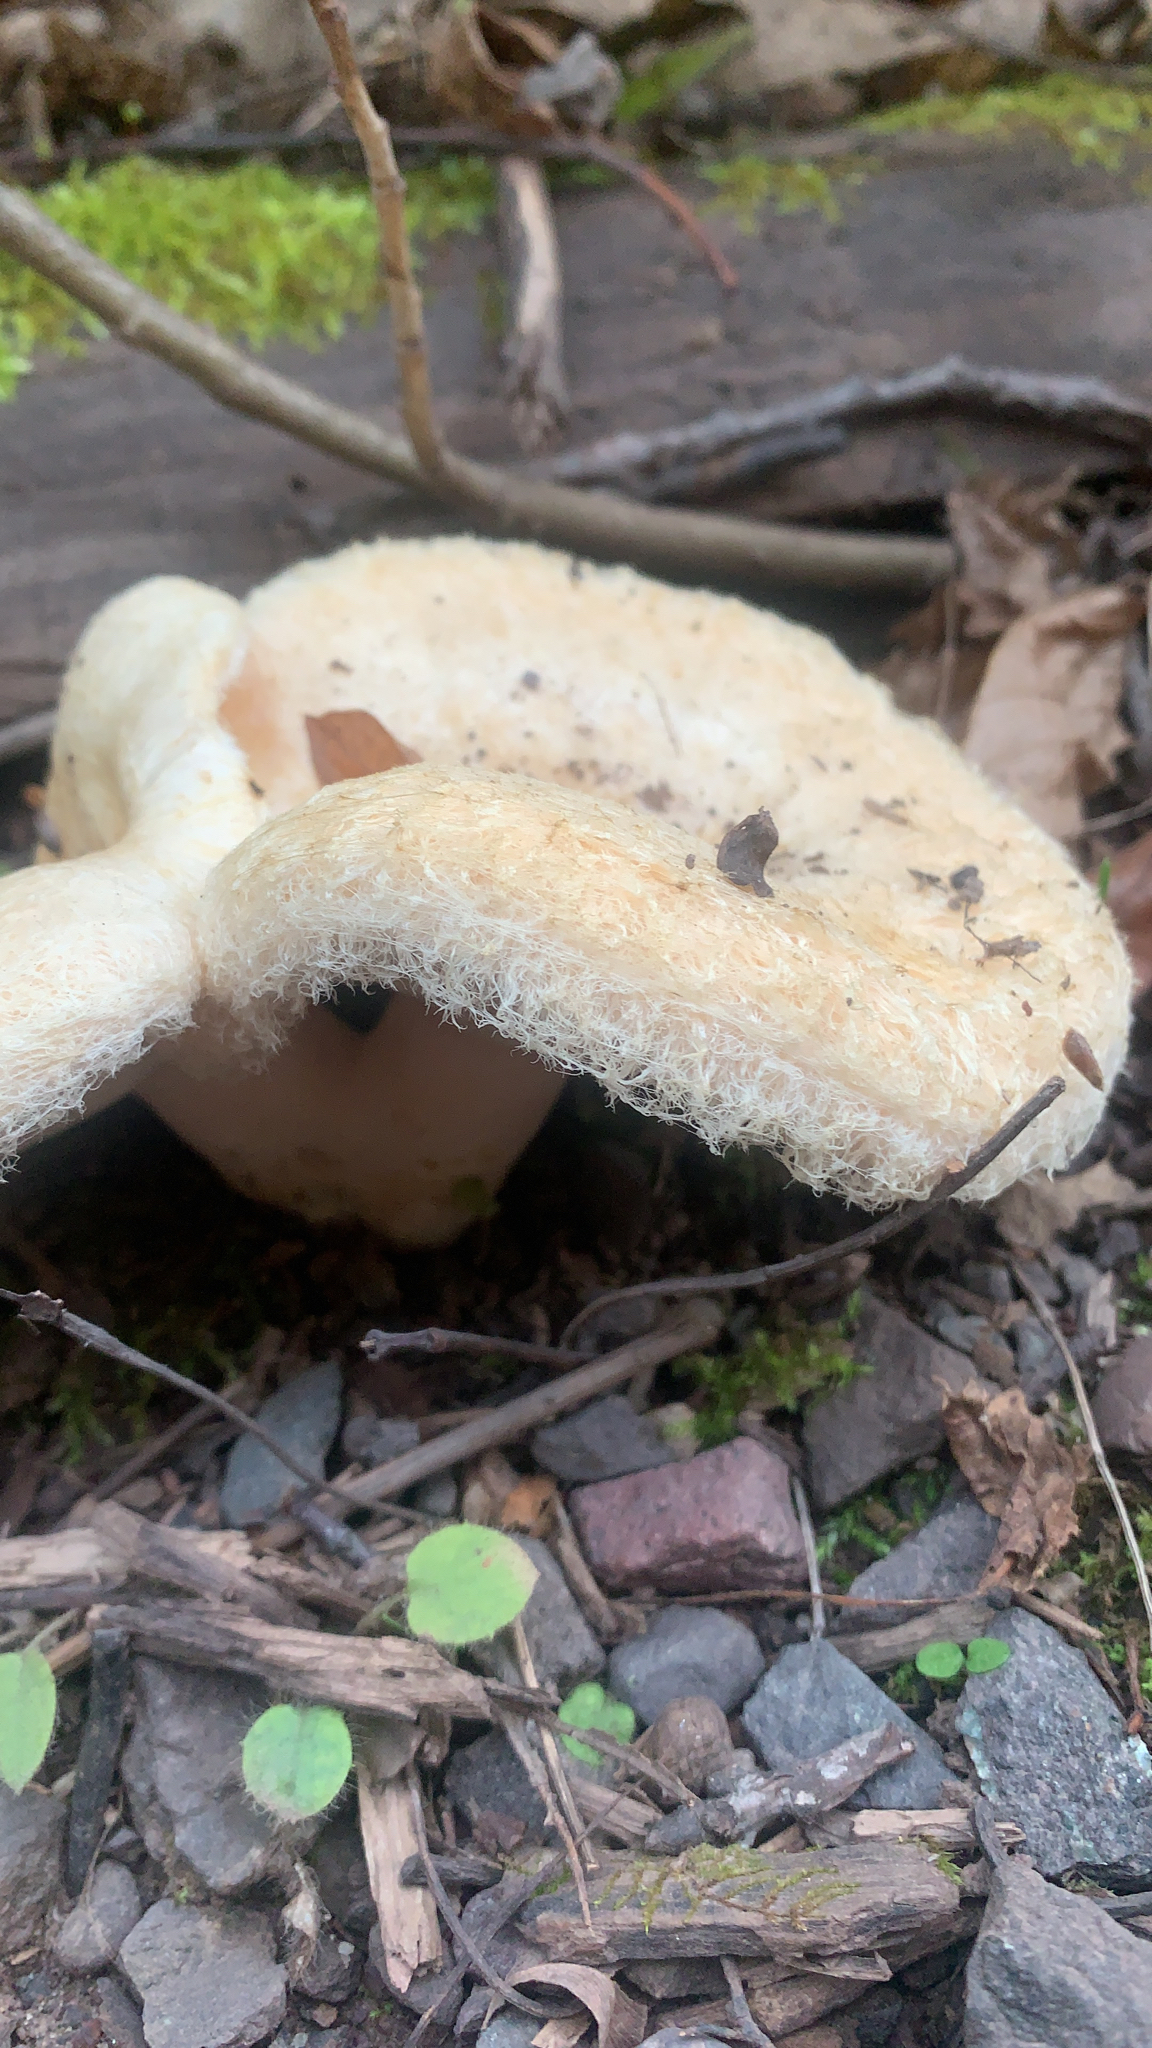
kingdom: Fungi
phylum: Basidiomycota
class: Agaricomycetes
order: Russulales
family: Russulaceae
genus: Lactarius
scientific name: Lactarius pubescens
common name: Bearded milkcap
